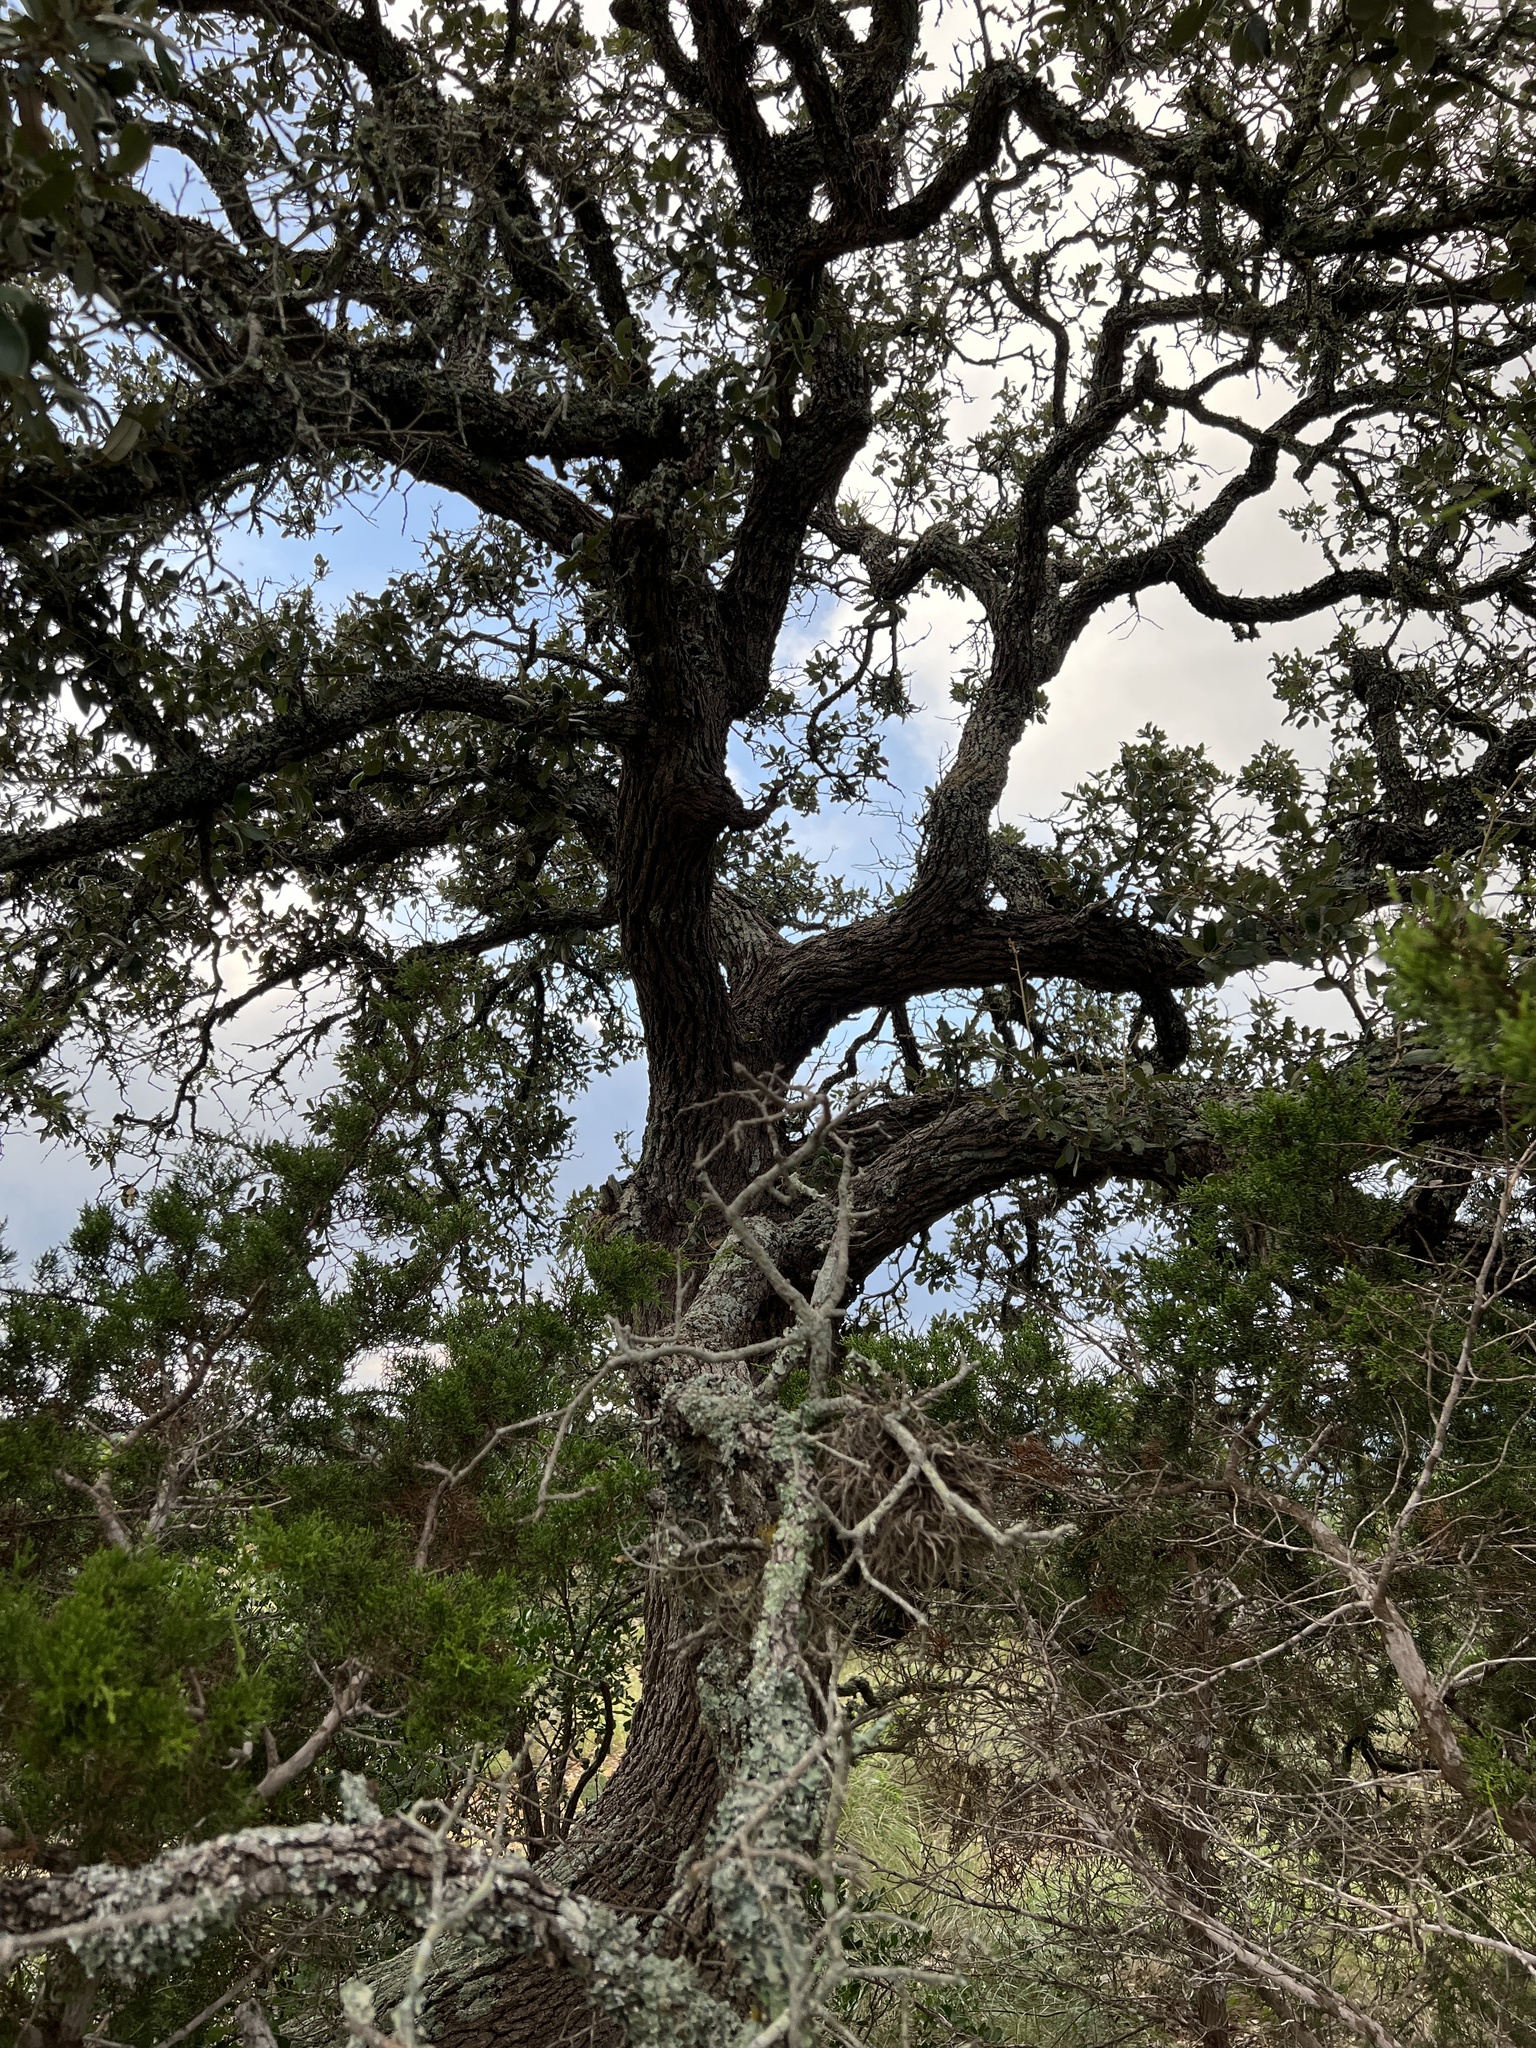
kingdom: Plantae
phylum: Tracheophyta
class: Magnoliopsida
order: Fagales
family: Fagaceae
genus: Quercus
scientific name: Quercus fusiformis
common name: Texas live oak
